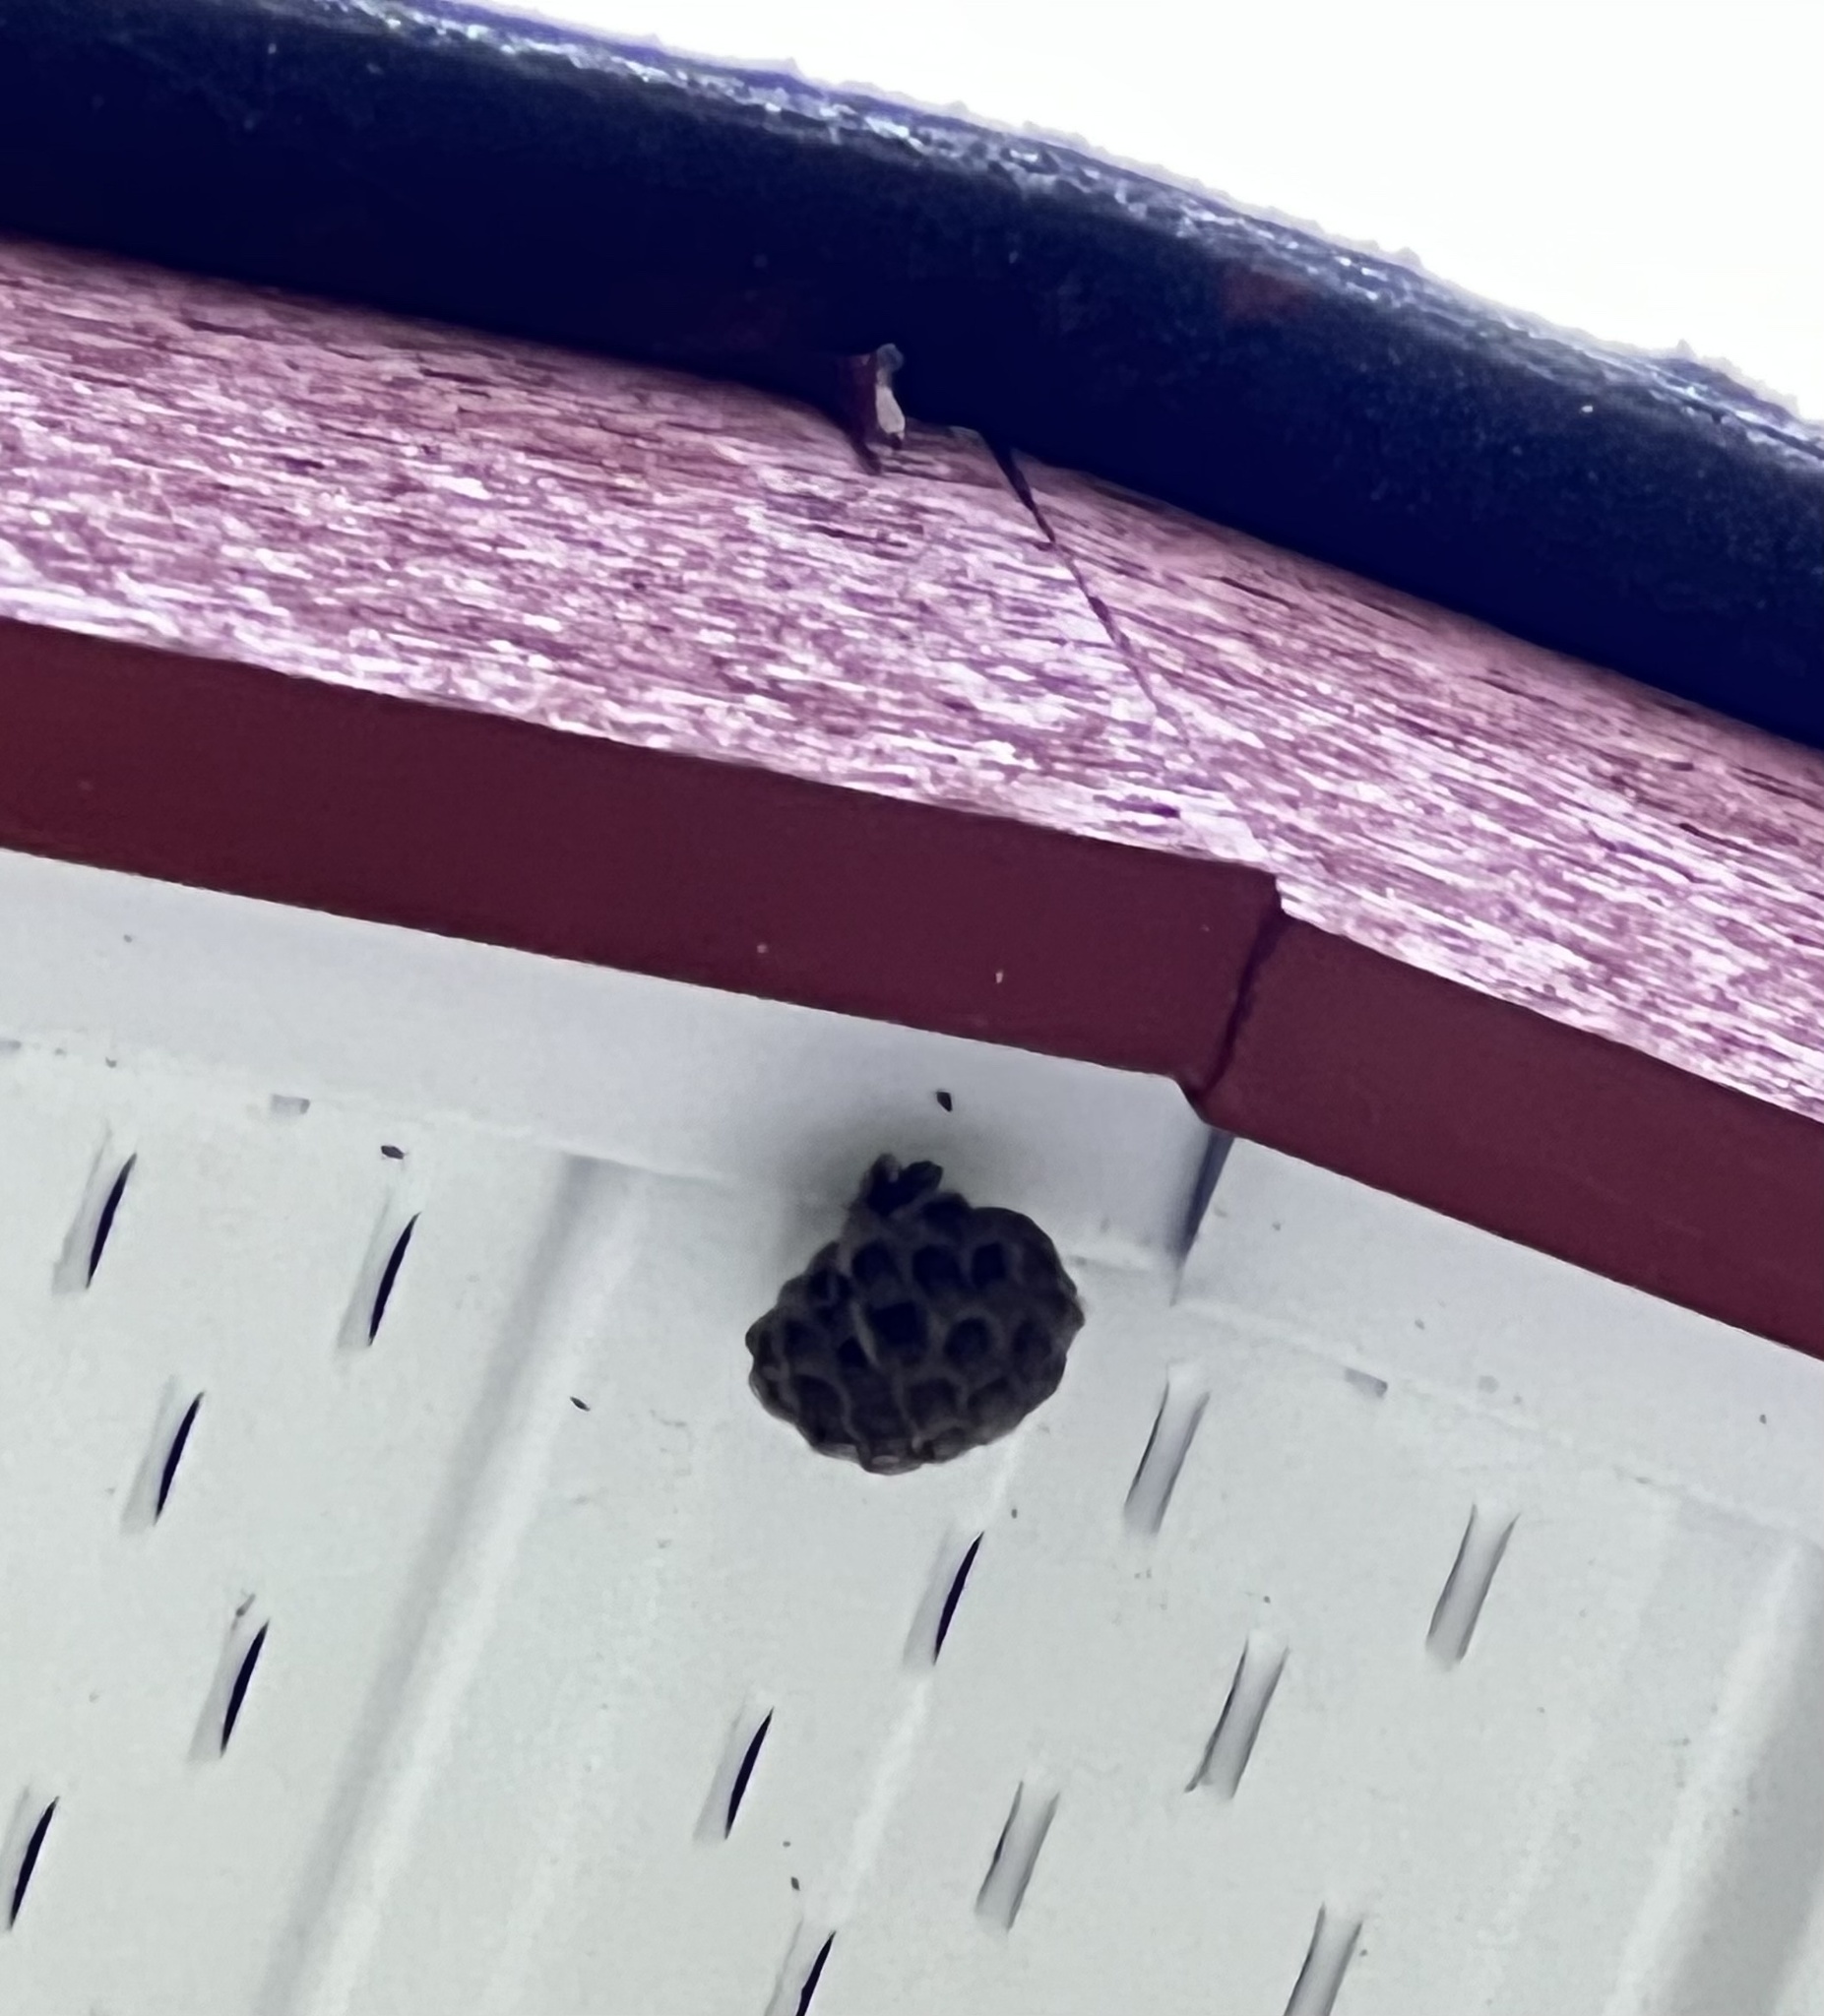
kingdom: Animalia
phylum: Arthropoda
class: Insecta
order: Hymenoptera
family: Vespidae
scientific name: Vespidae
